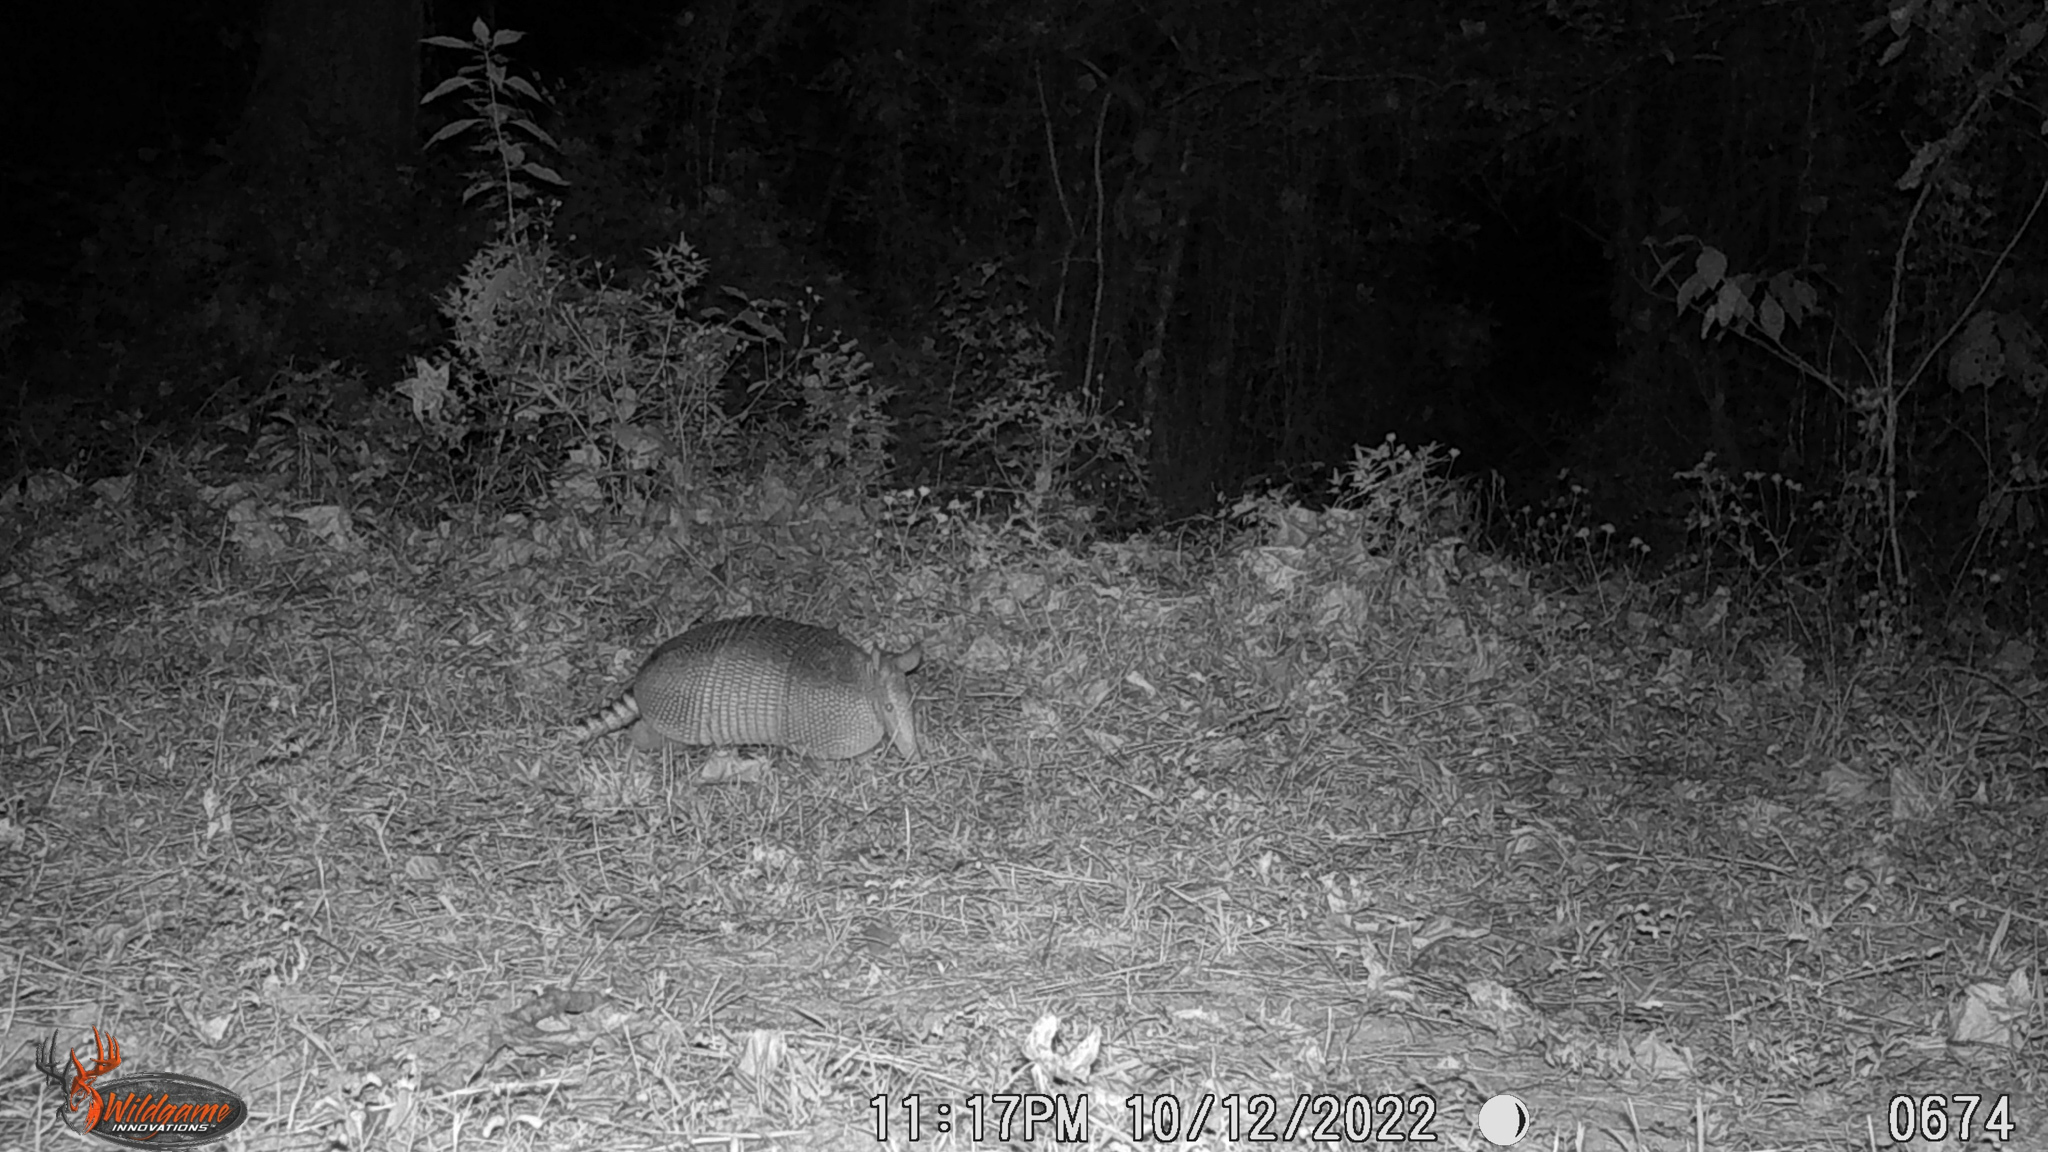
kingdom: Animalia
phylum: Chordata
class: Mammalia
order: Cingulata
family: Dasypodidae
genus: Dasypus
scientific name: Dasypus novemcinctus
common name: Nine-banded armadillo
